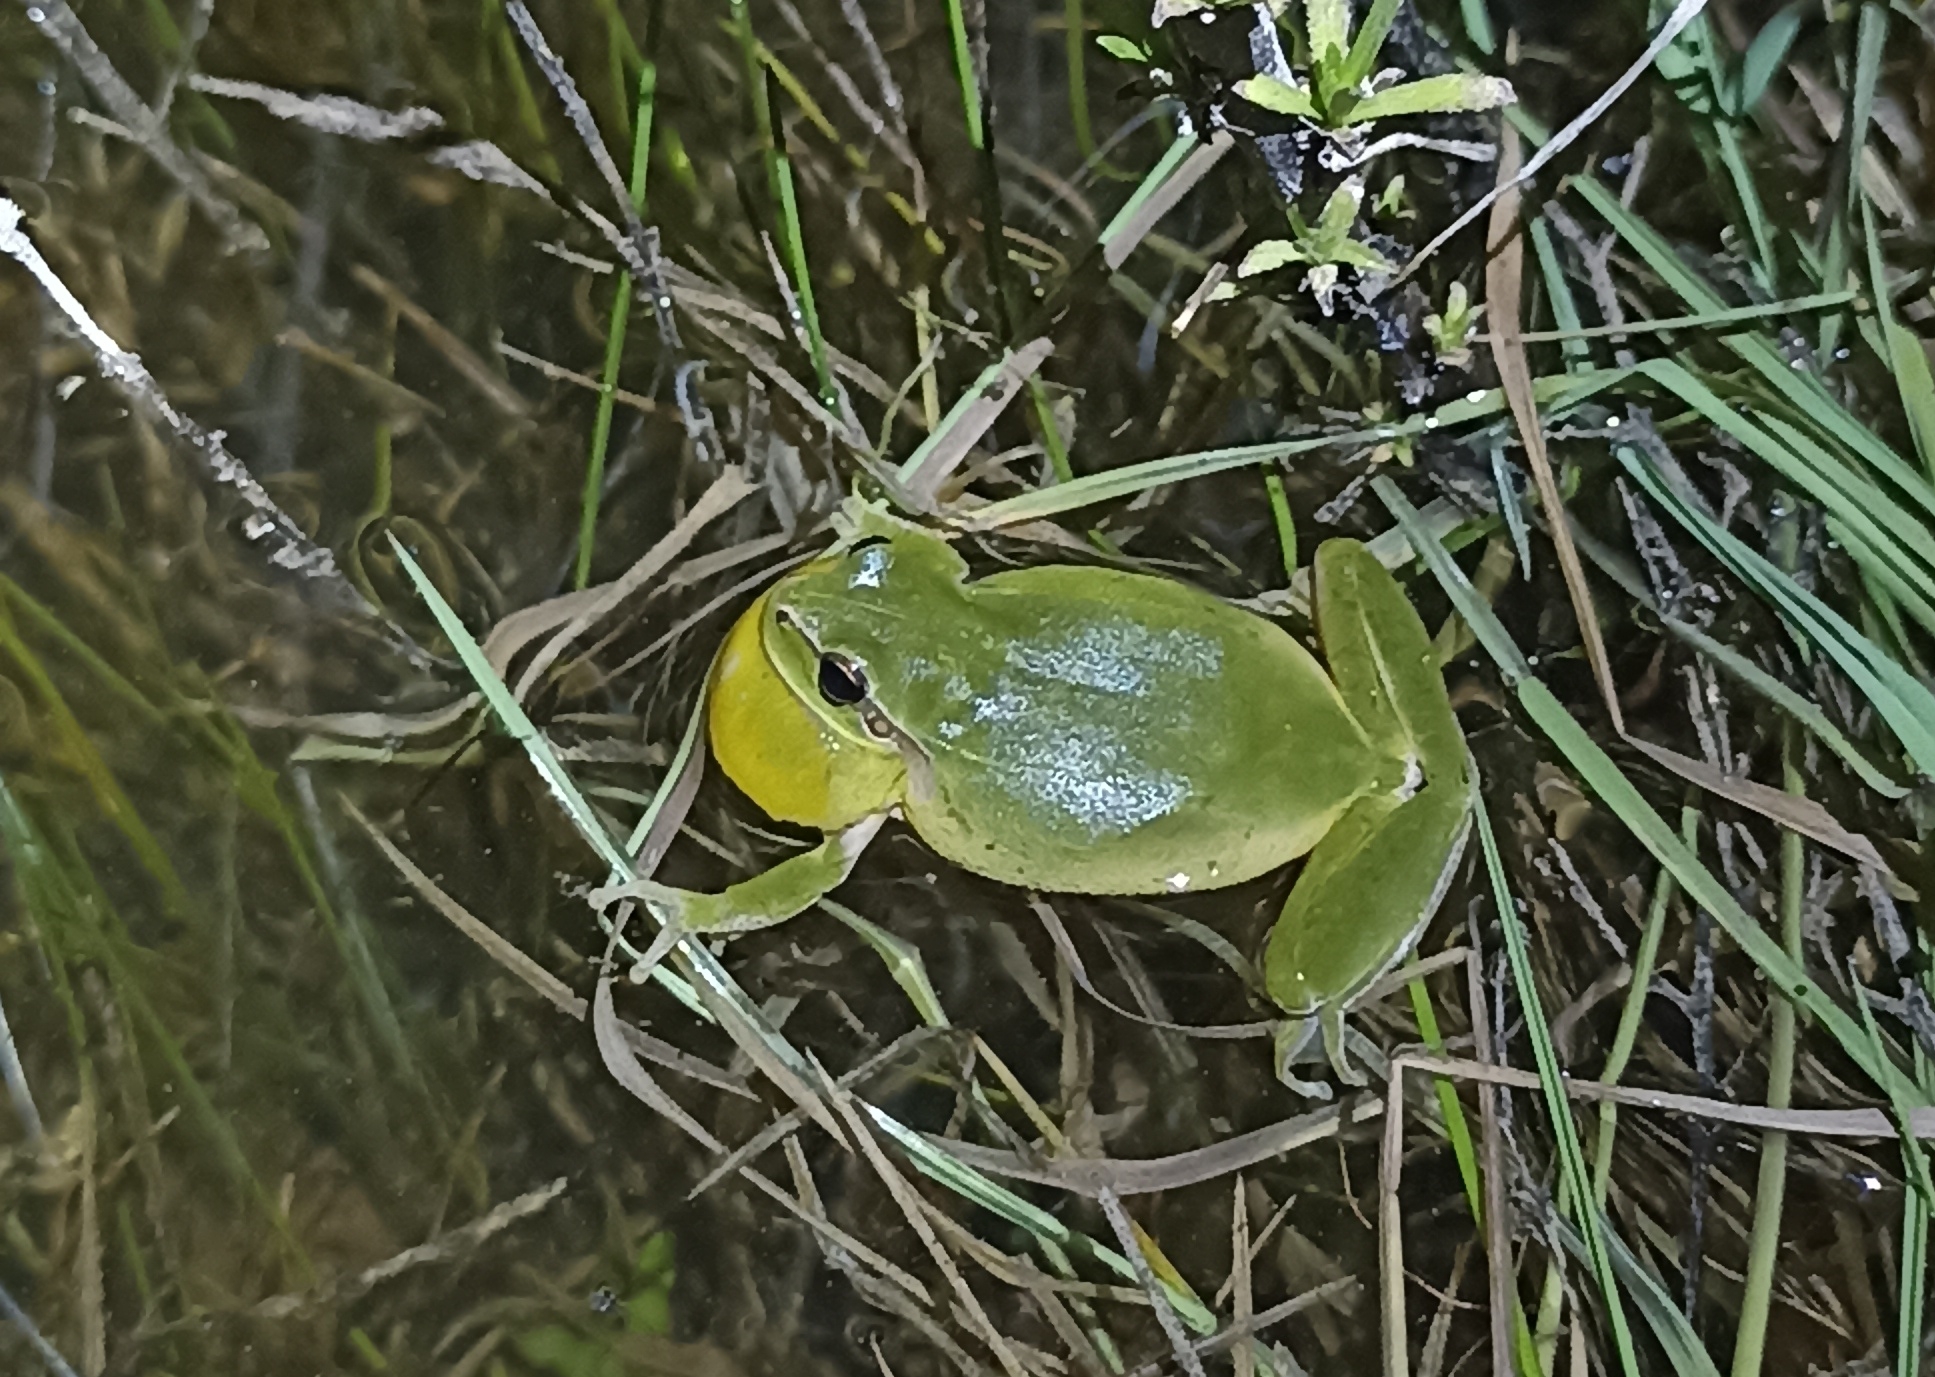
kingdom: Animalia
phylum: Chordata
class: Amphibia
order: Anura
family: Hylidae
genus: Hyla
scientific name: Hyla meridionalis
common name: Stripeless tree frog
